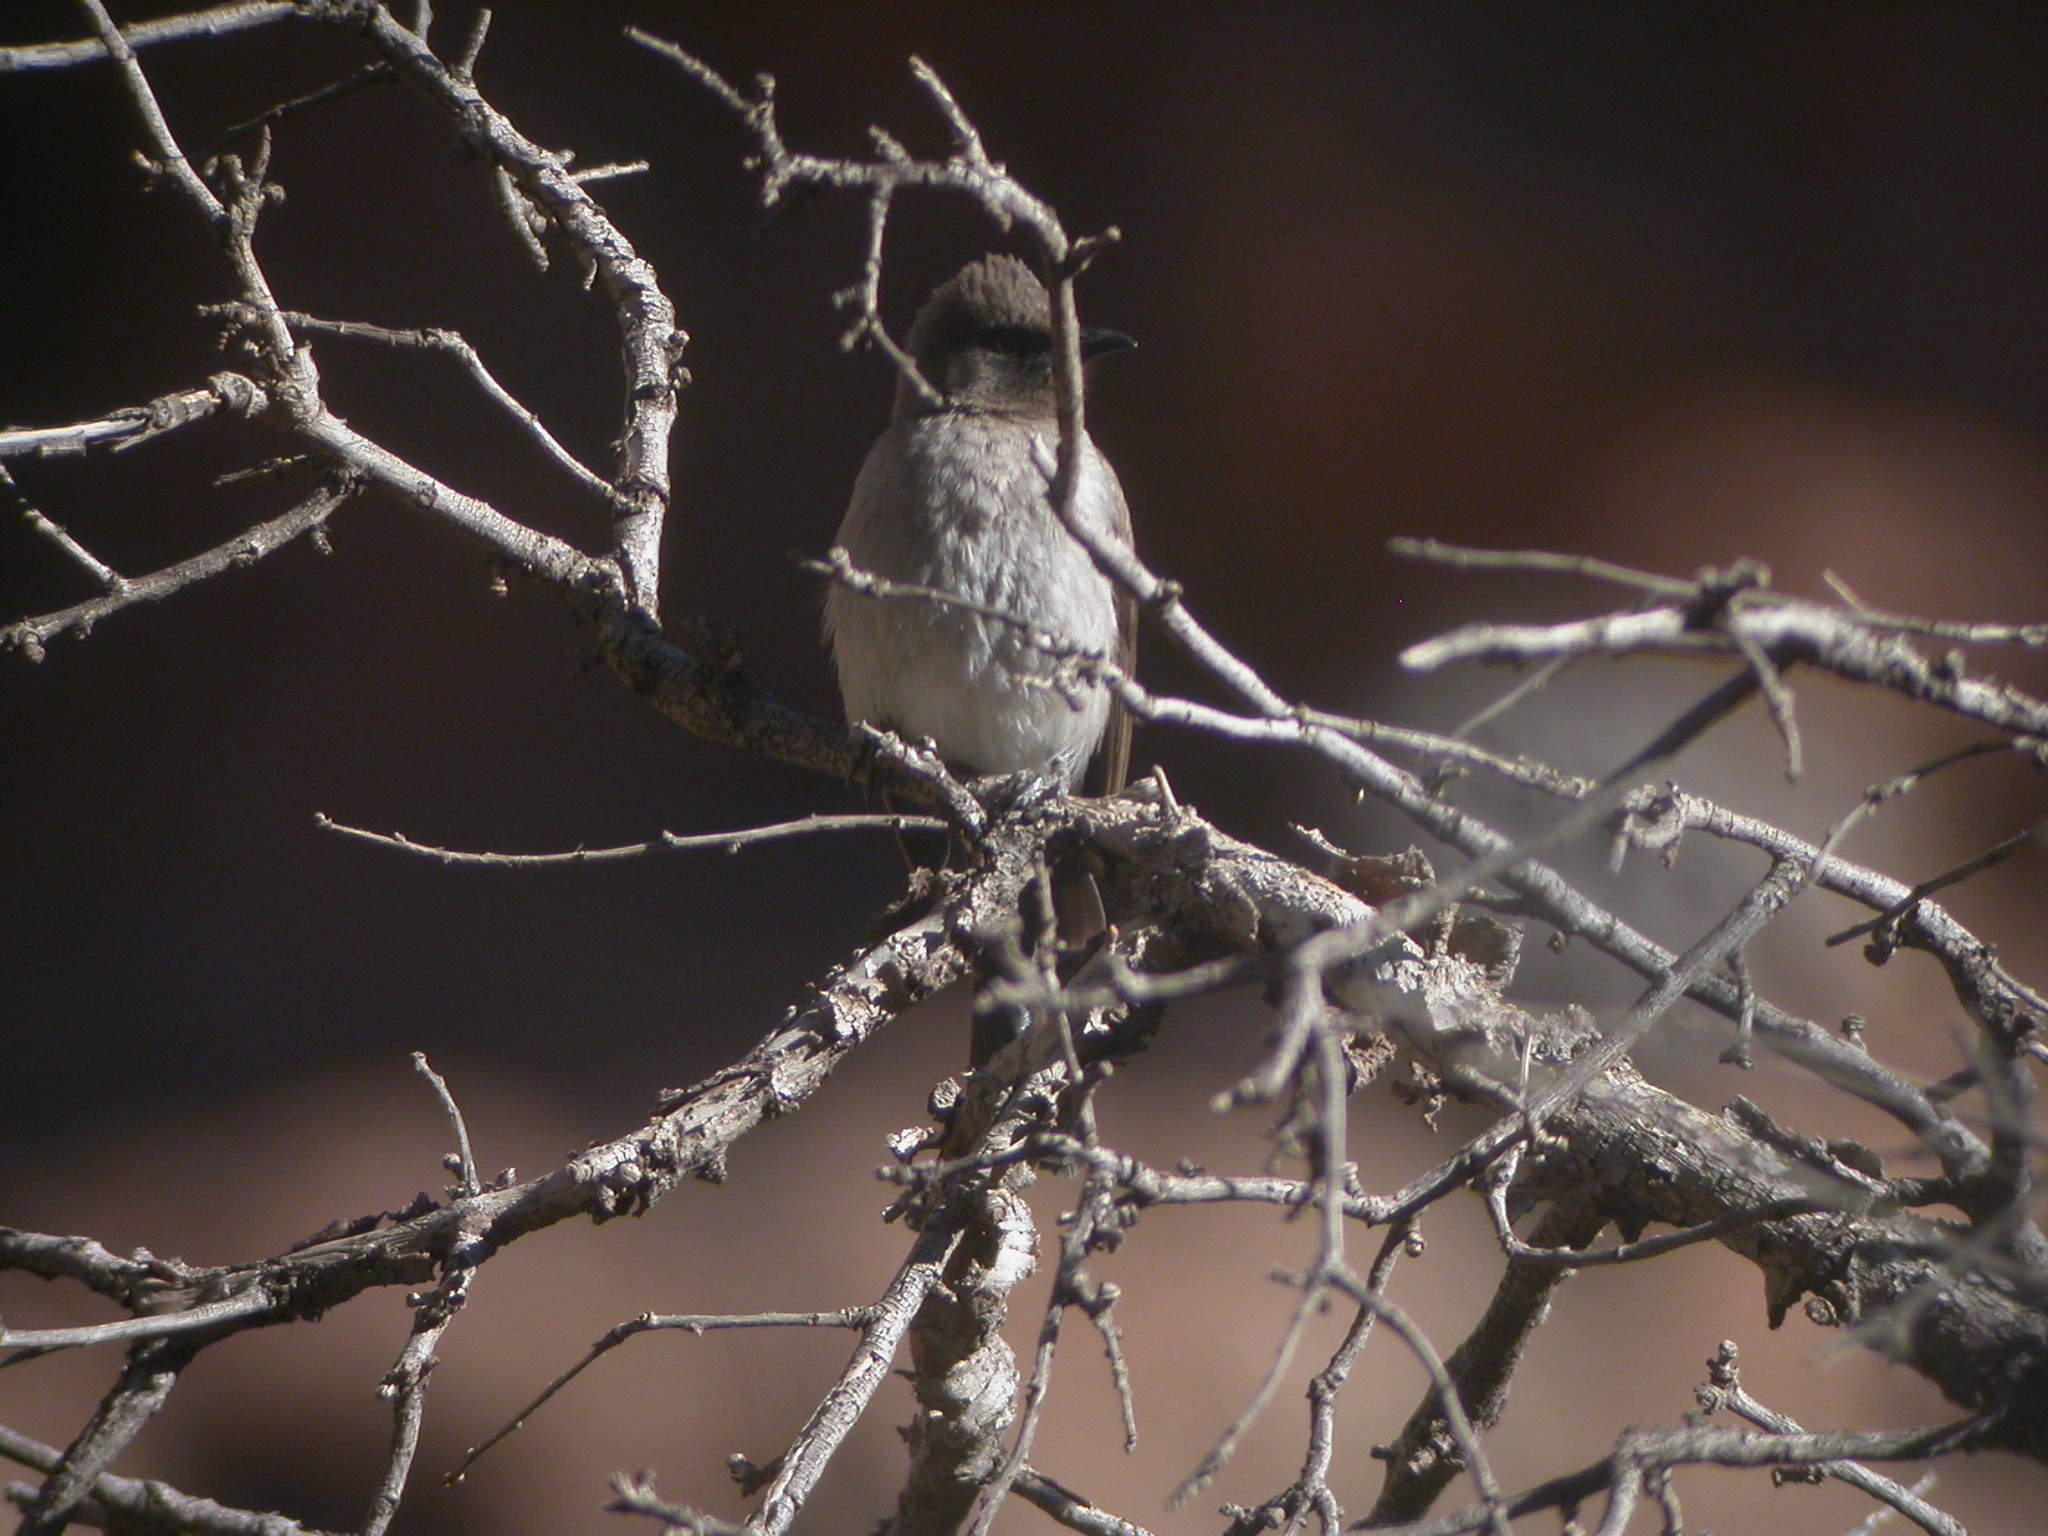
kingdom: Animalia
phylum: Chordata
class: Aves
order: Passeriformes
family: Pycnonotidae
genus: Pycnonotus
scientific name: Pycnonotus barbatus
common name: Common bulbul
